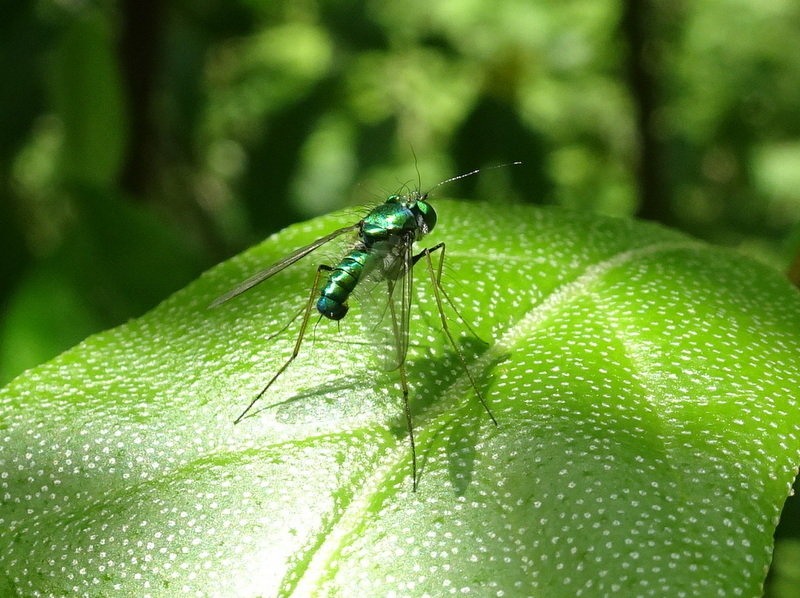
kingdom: Animalia
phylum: Arthropoda
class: Insecta
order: Diptera
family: Dolichopodidae
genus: Condylostylus
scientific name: Condylostylus comatus
